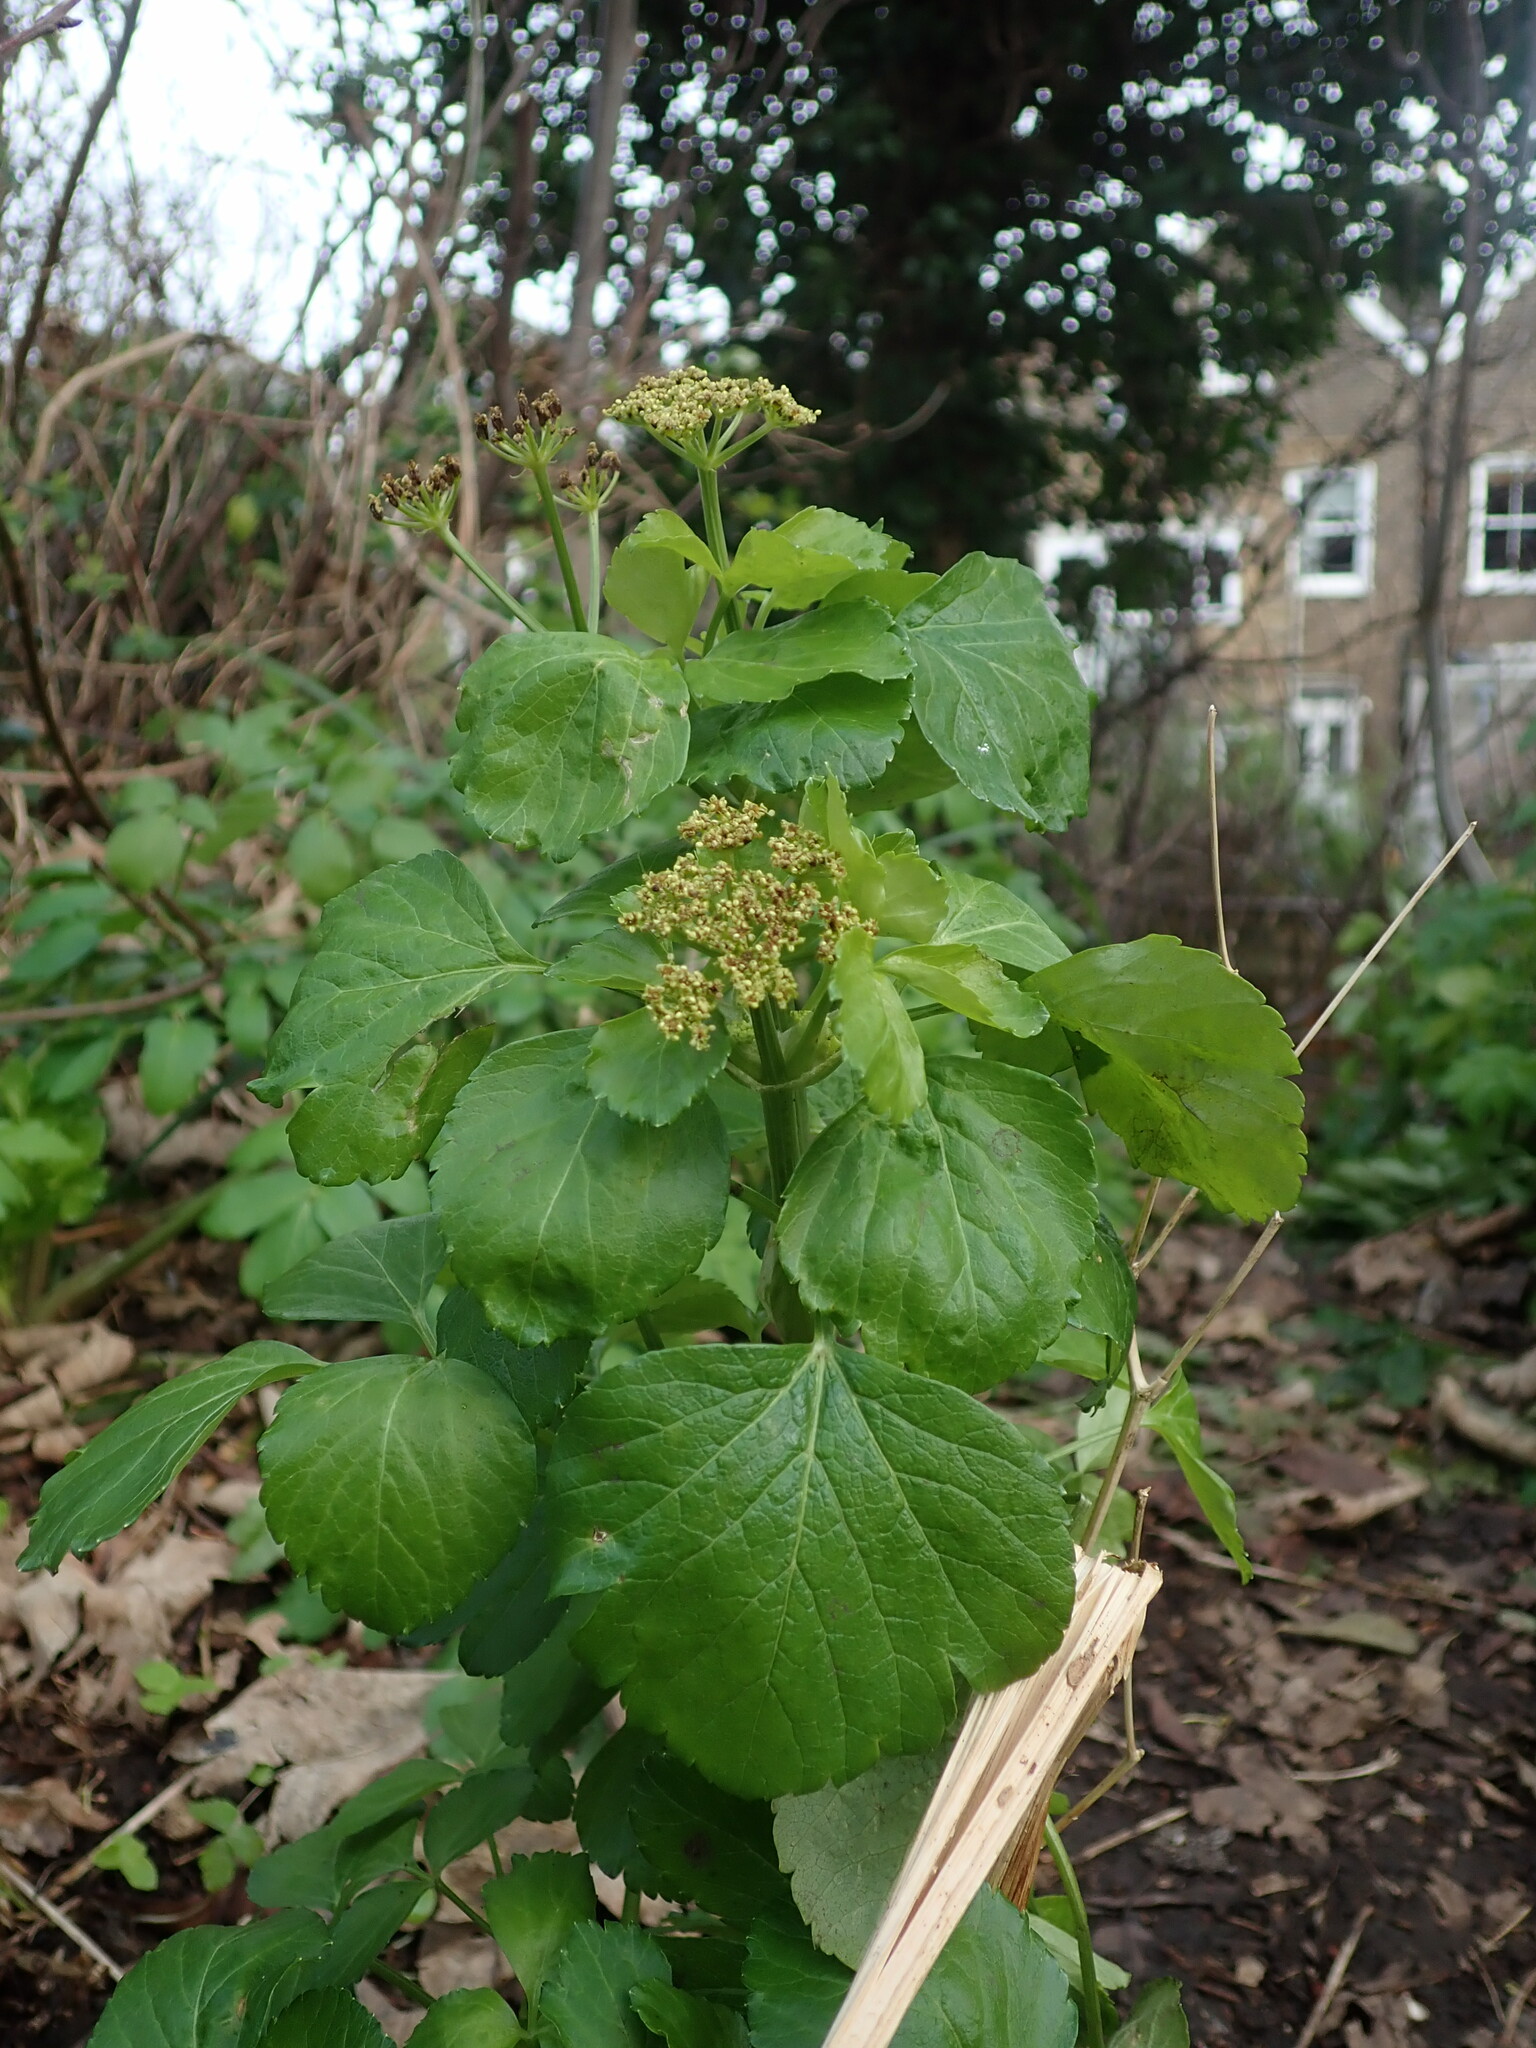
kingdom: Plantae
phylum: Tracheophyta
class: Magnoliopsida
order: Apiales
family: Apiaceae
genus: Smyrnium
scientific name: Smyrnium olusatrum
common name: Alexanders
